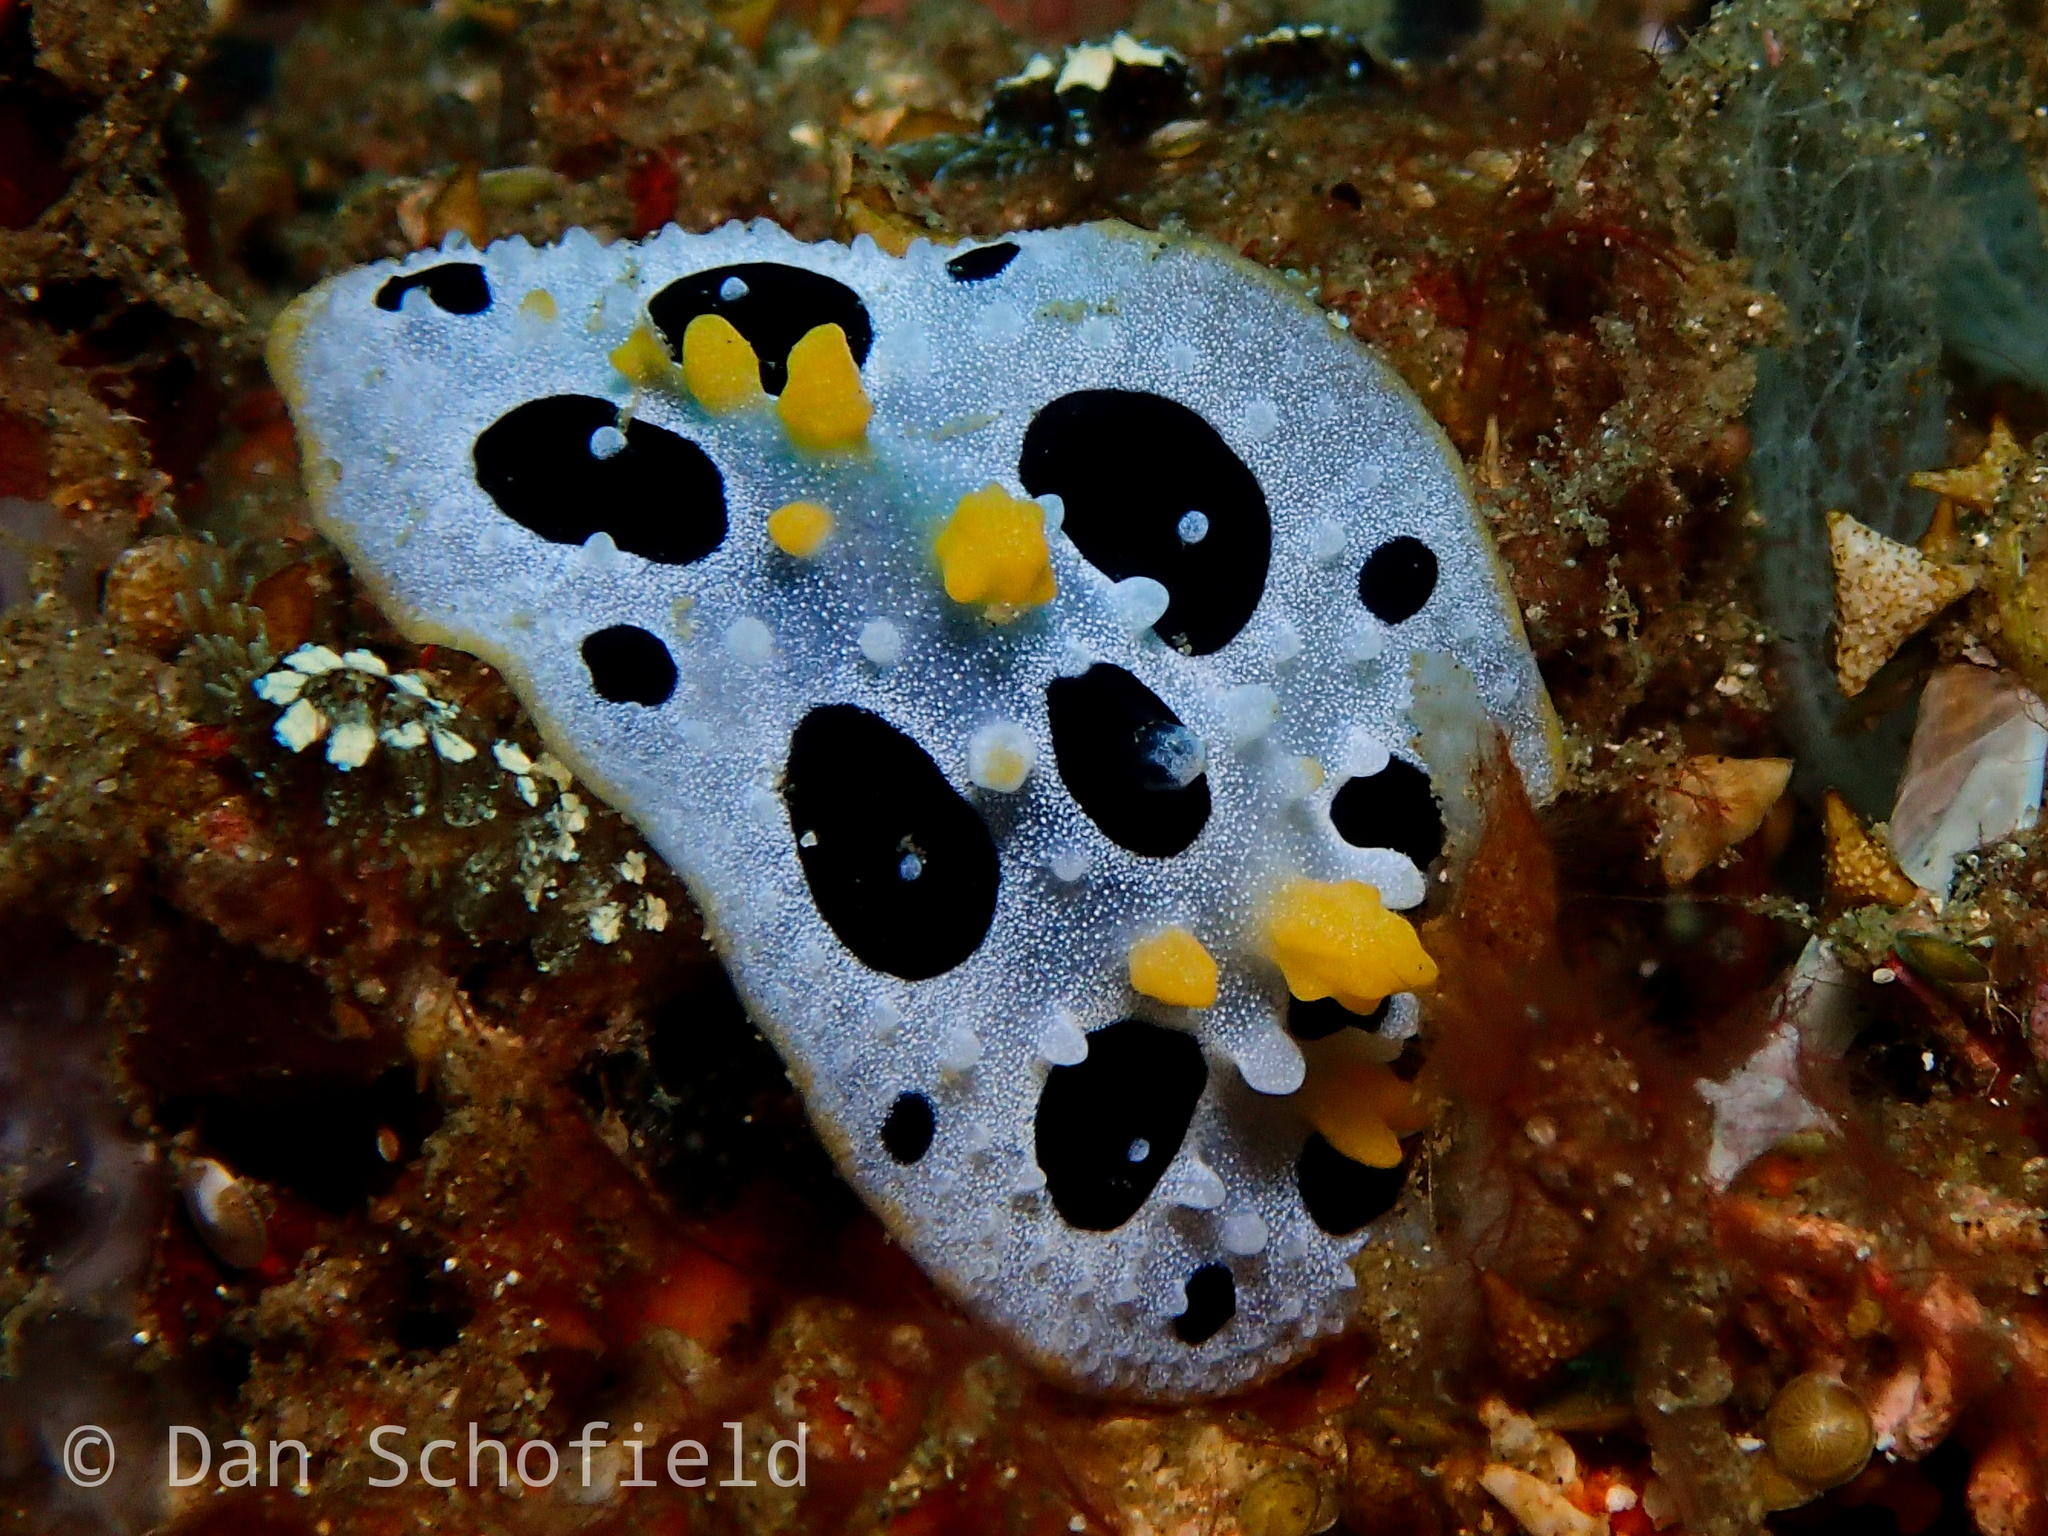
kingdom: Animalia
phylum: Mollusca
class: Gastropoda
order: Nudibranchia
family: Phyllidiidae
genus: Phyllidia
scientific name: Phyllidia babai
